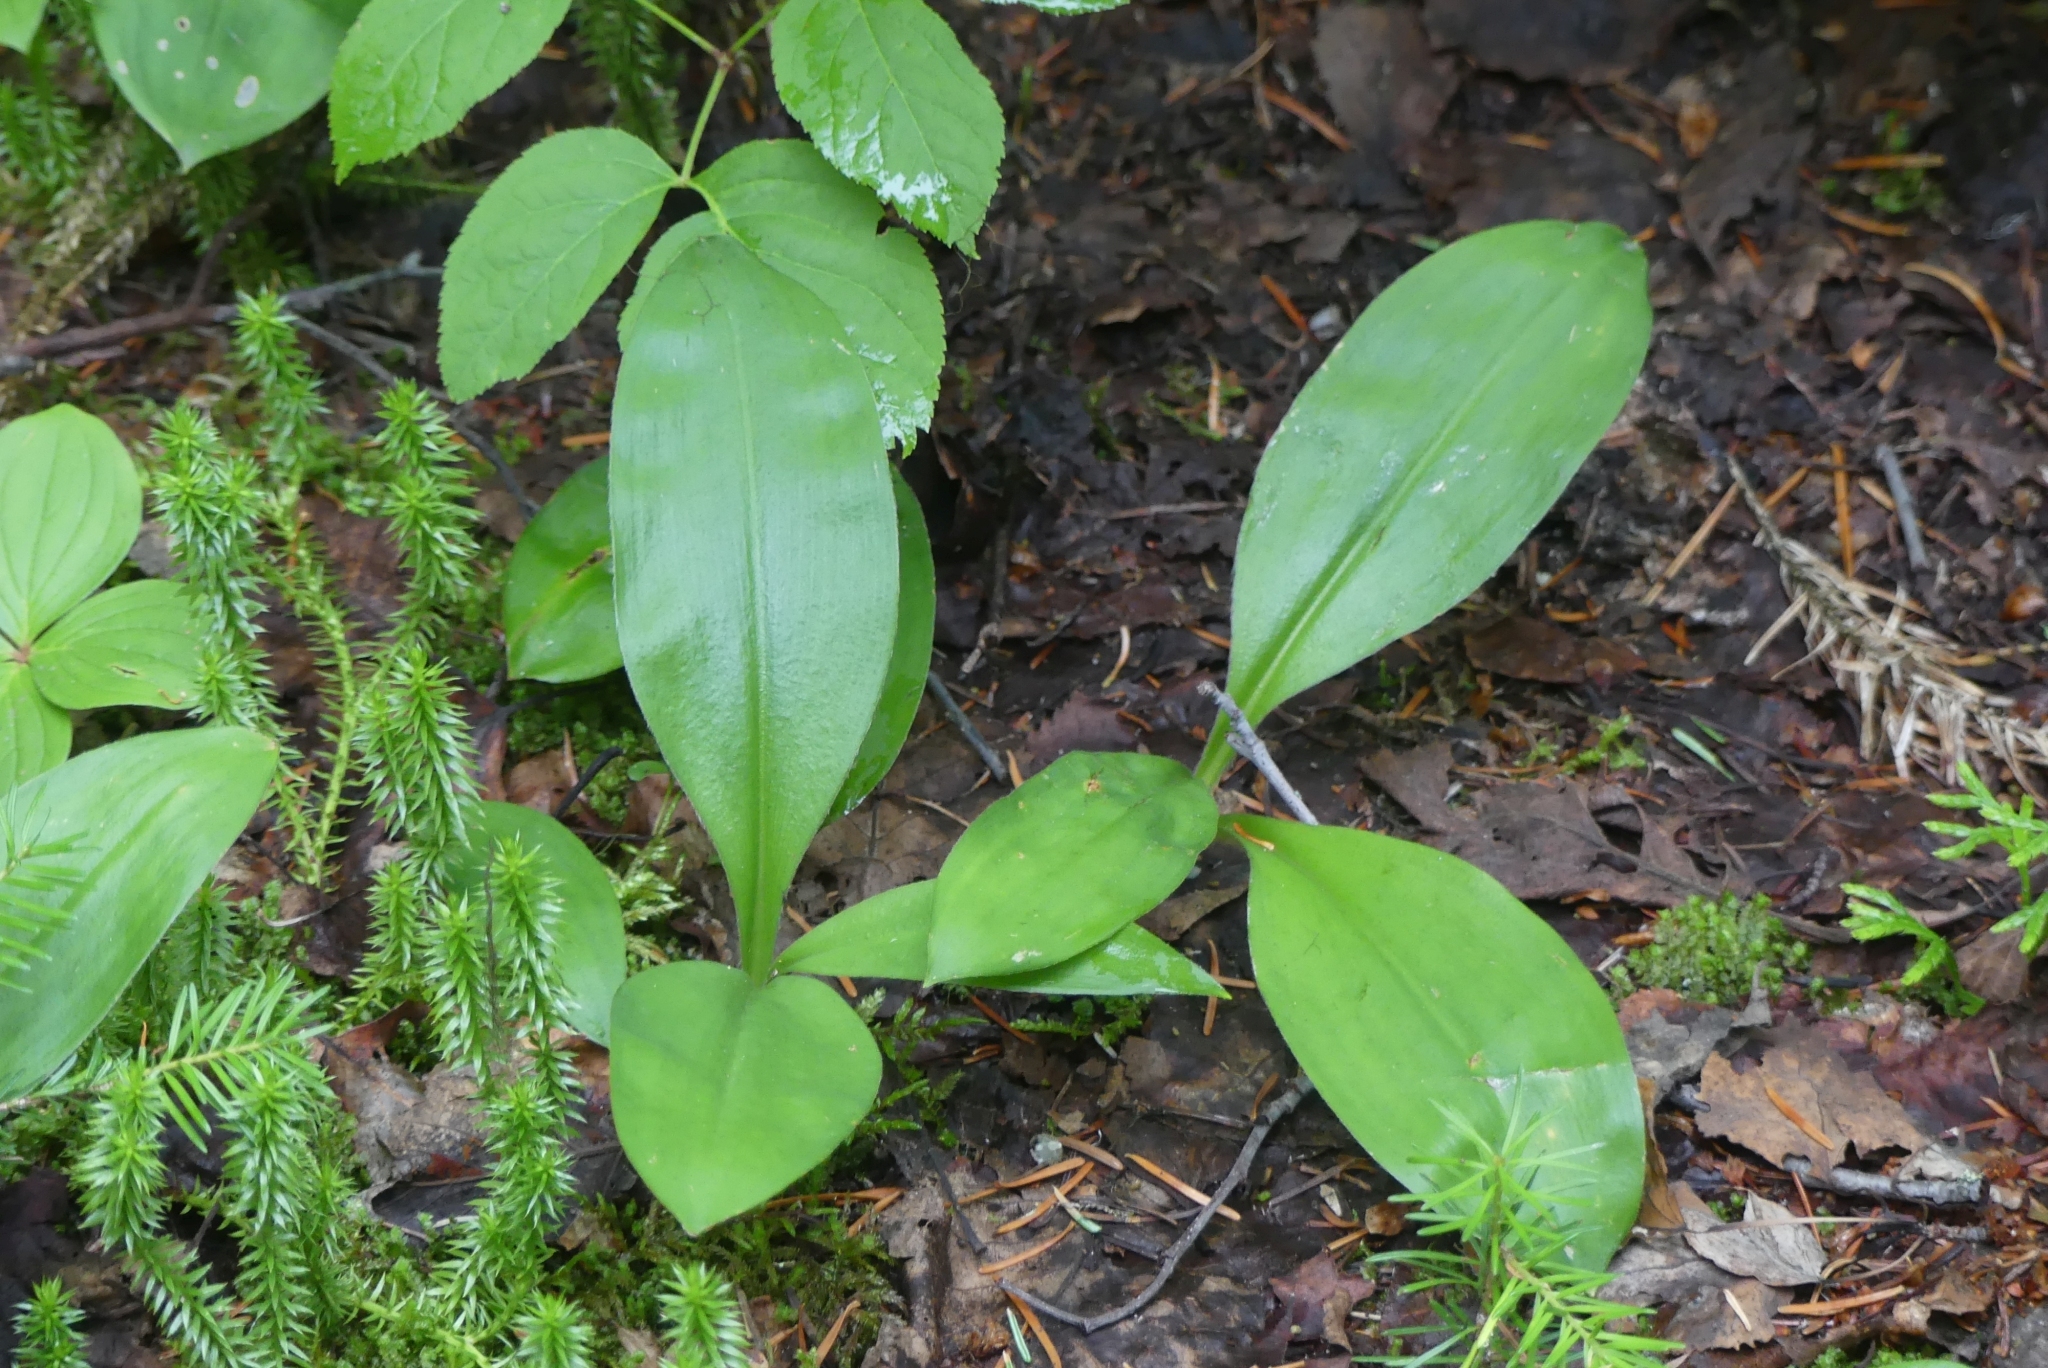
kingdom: Plantae
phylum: Tracheophyta
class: Liliopsida
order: Liliales
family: Liliaceae
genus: Clintonia
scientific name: Clintonia uniflora
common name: Queen's cup
